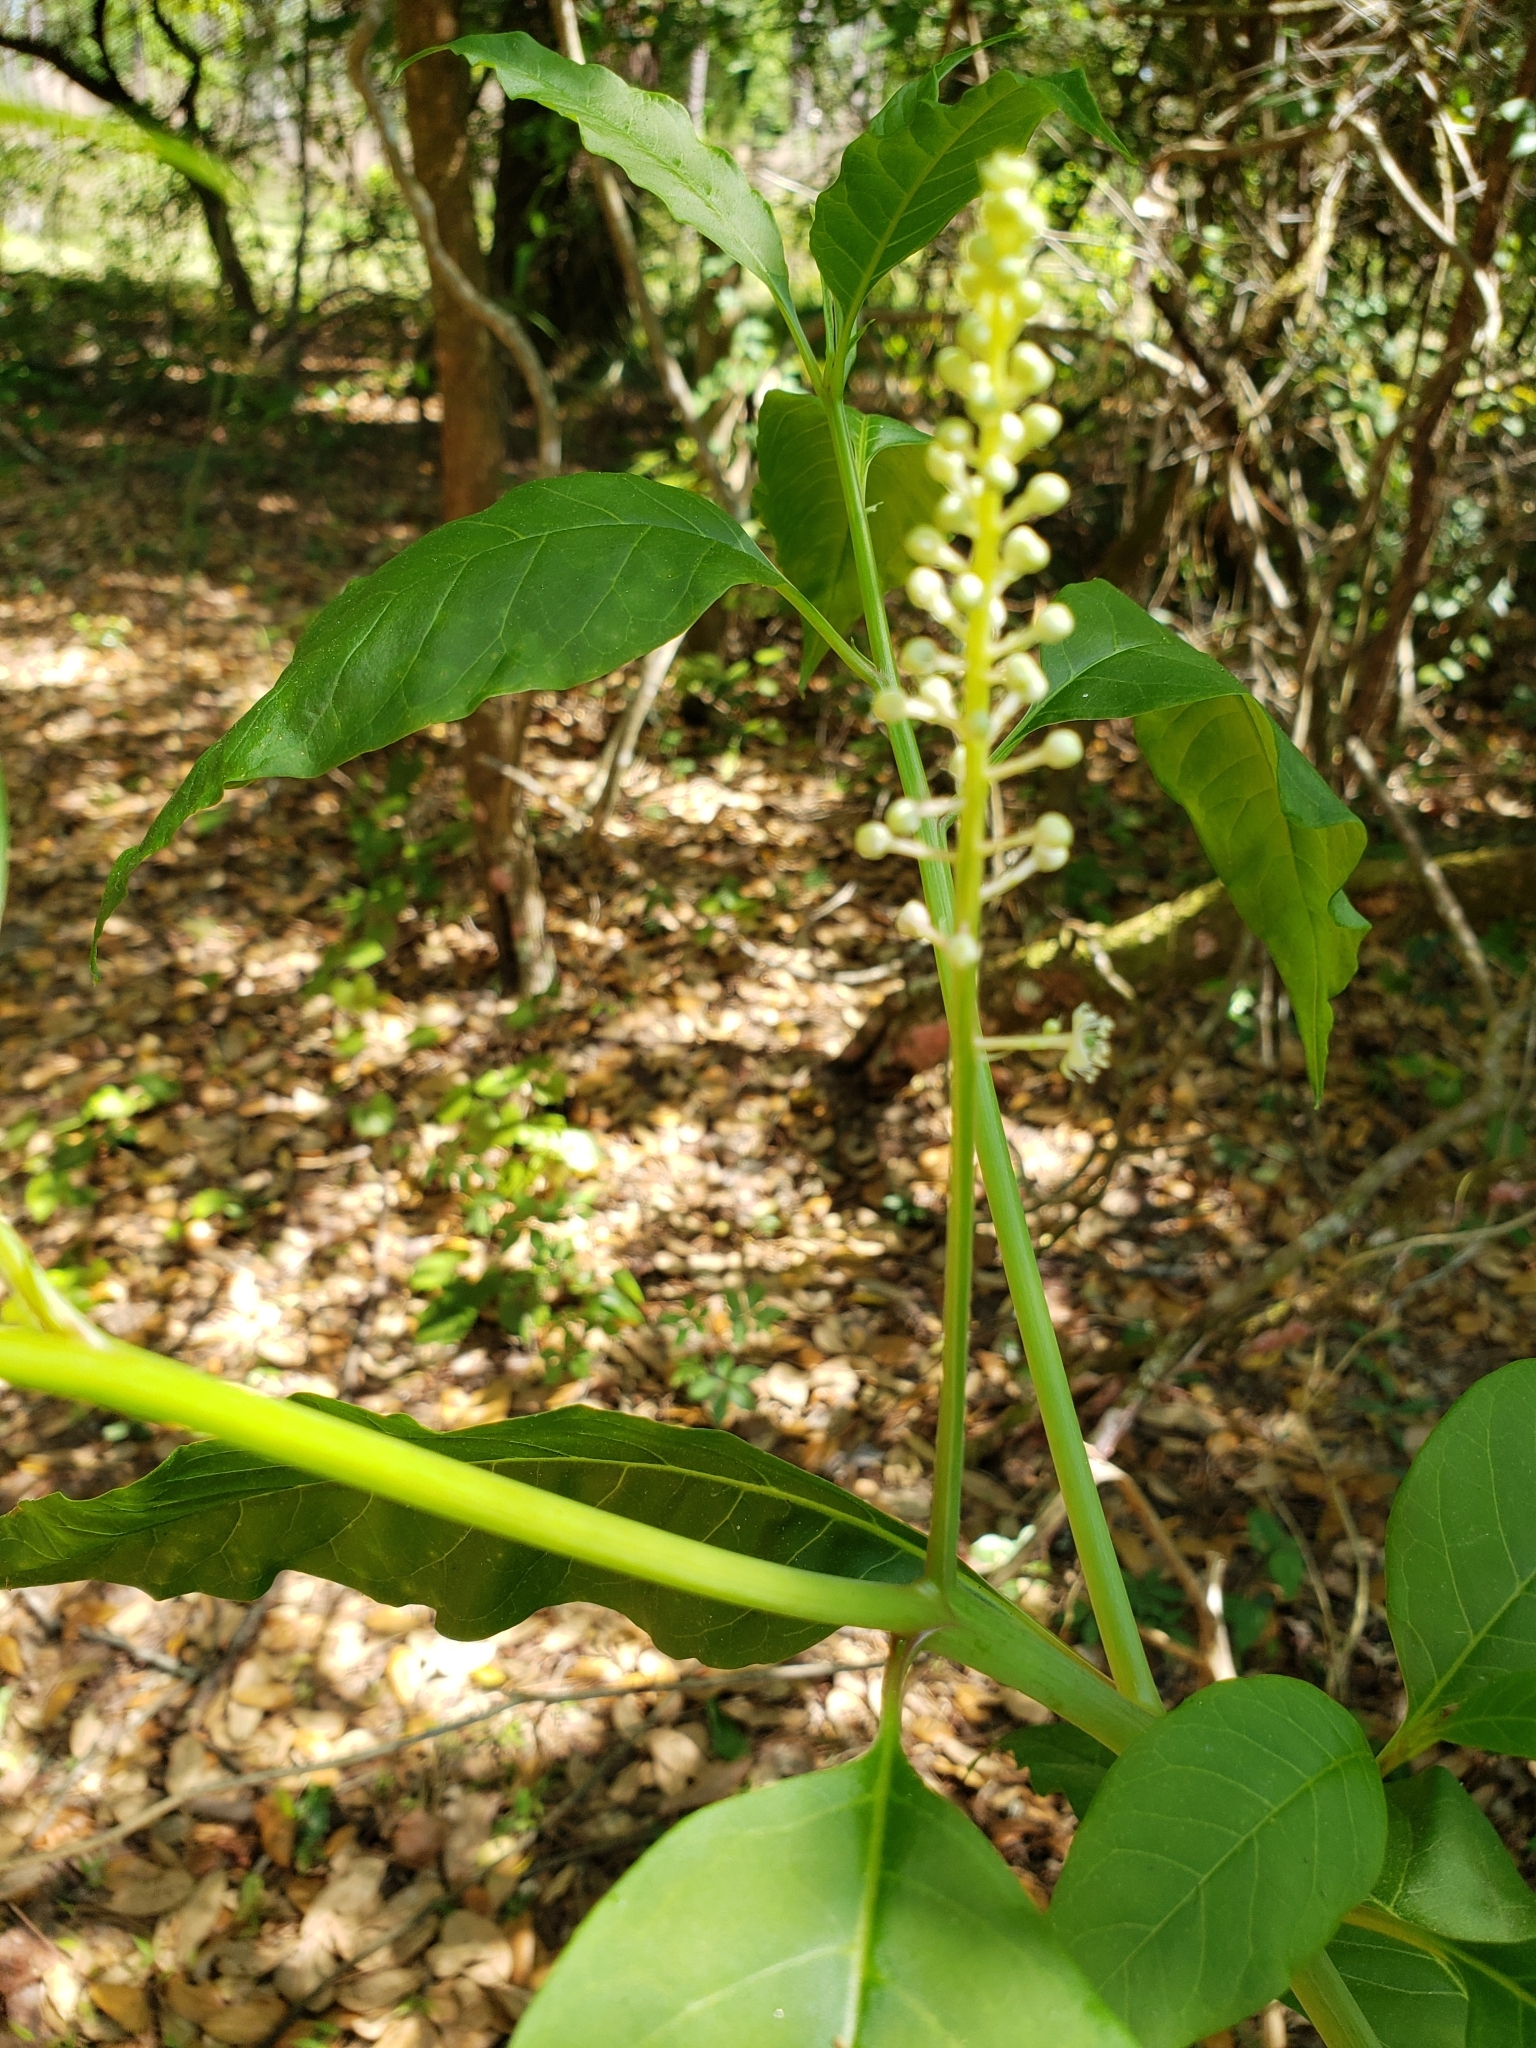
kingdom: Plantae
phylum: Tracheophyta
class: Magnoliopsida
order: Caryophyllales
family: Phytolaccaceae
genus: Phytolacca
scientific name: Phytolacca americana
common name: American pokeweed
